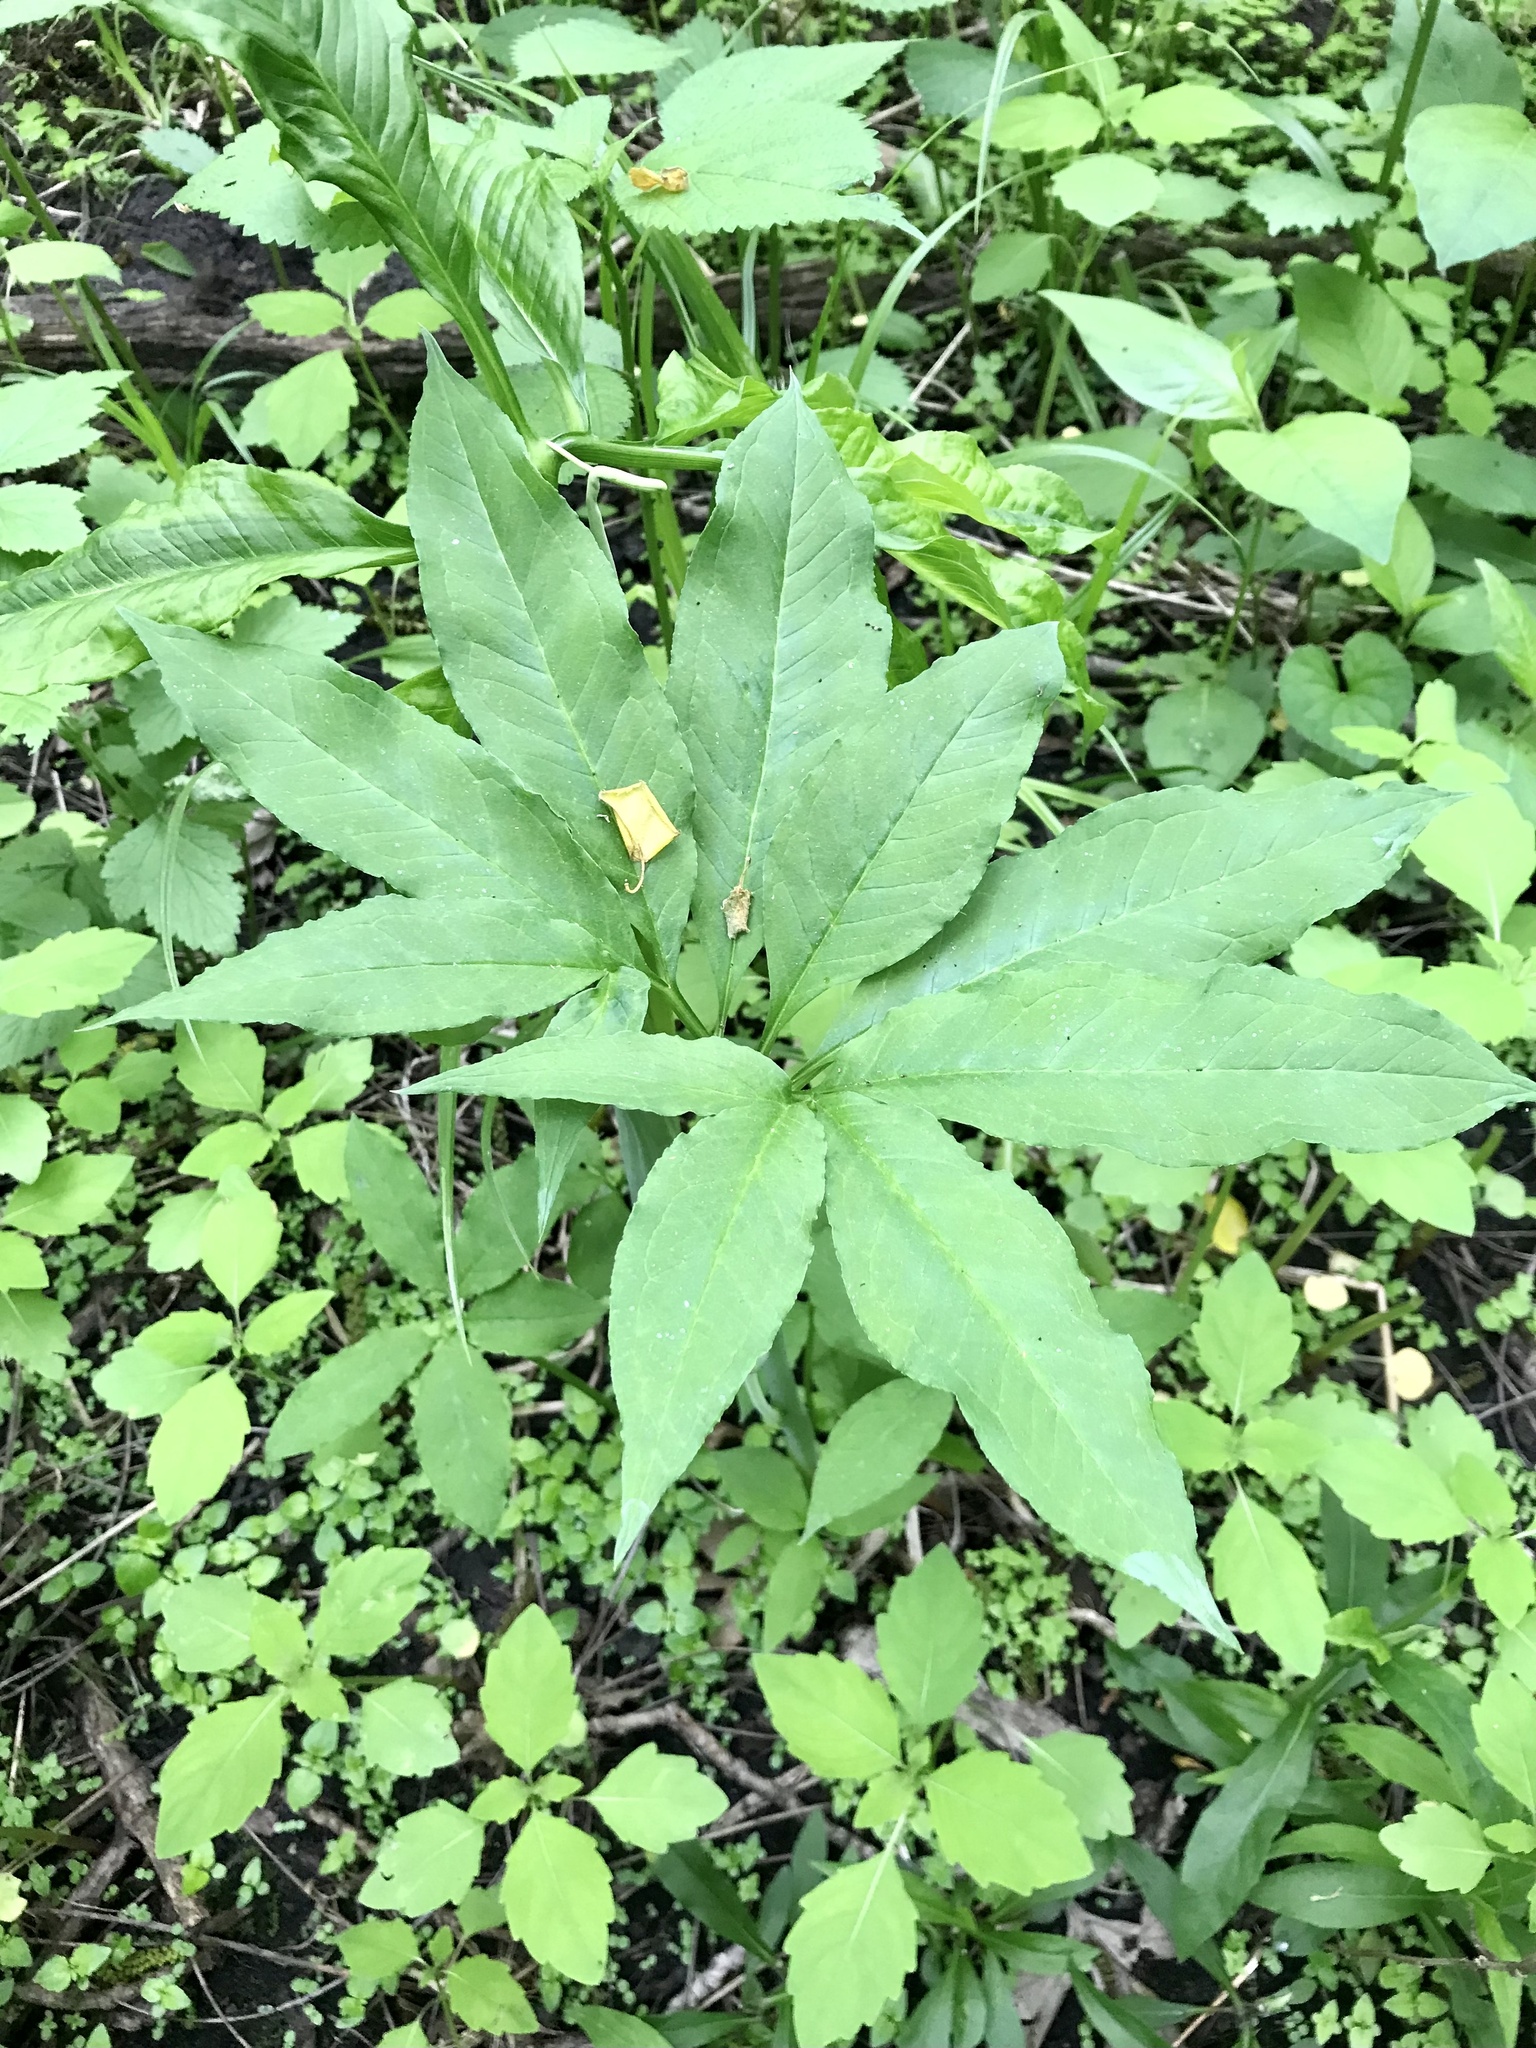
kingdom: Plantae
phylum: Tracheophyta
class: Liliopsida
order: Alismatales
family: Araceae
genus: Arisaema
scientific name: Arisaema dracontium
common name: Dragon-arum
